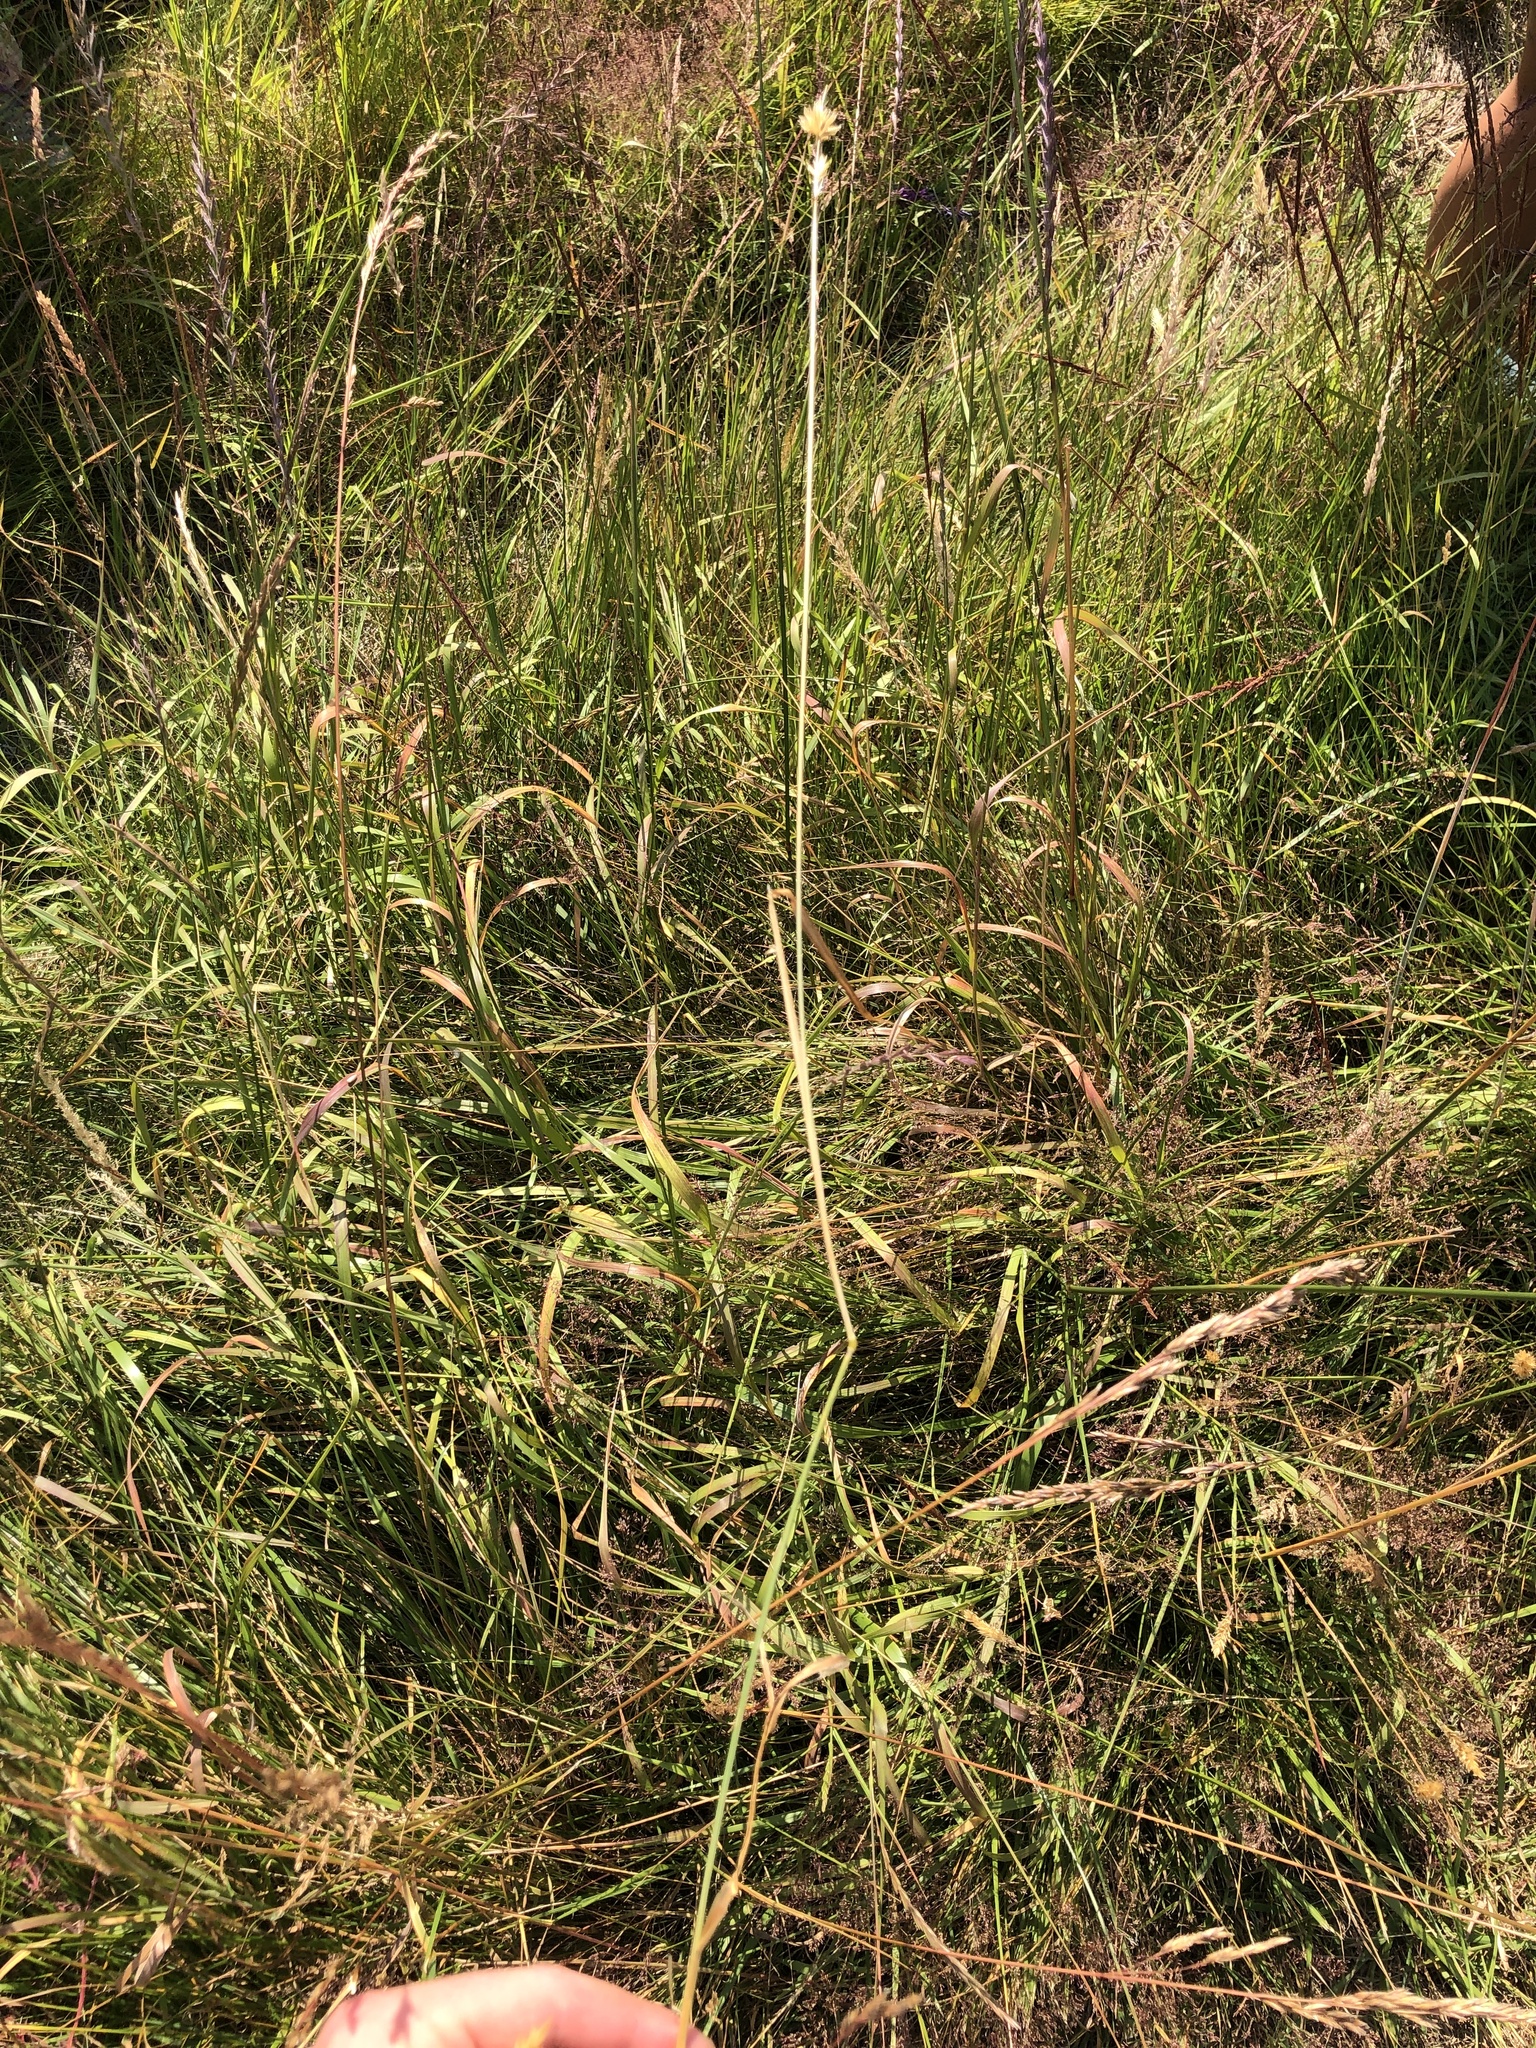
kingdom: Plantae
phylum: Tracheophyta
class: Liliopsida
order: Poales
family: Poaceae
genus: Anthoxanthum
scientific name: Anthoxanthum odoratum
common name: Sweet vernalgrass
